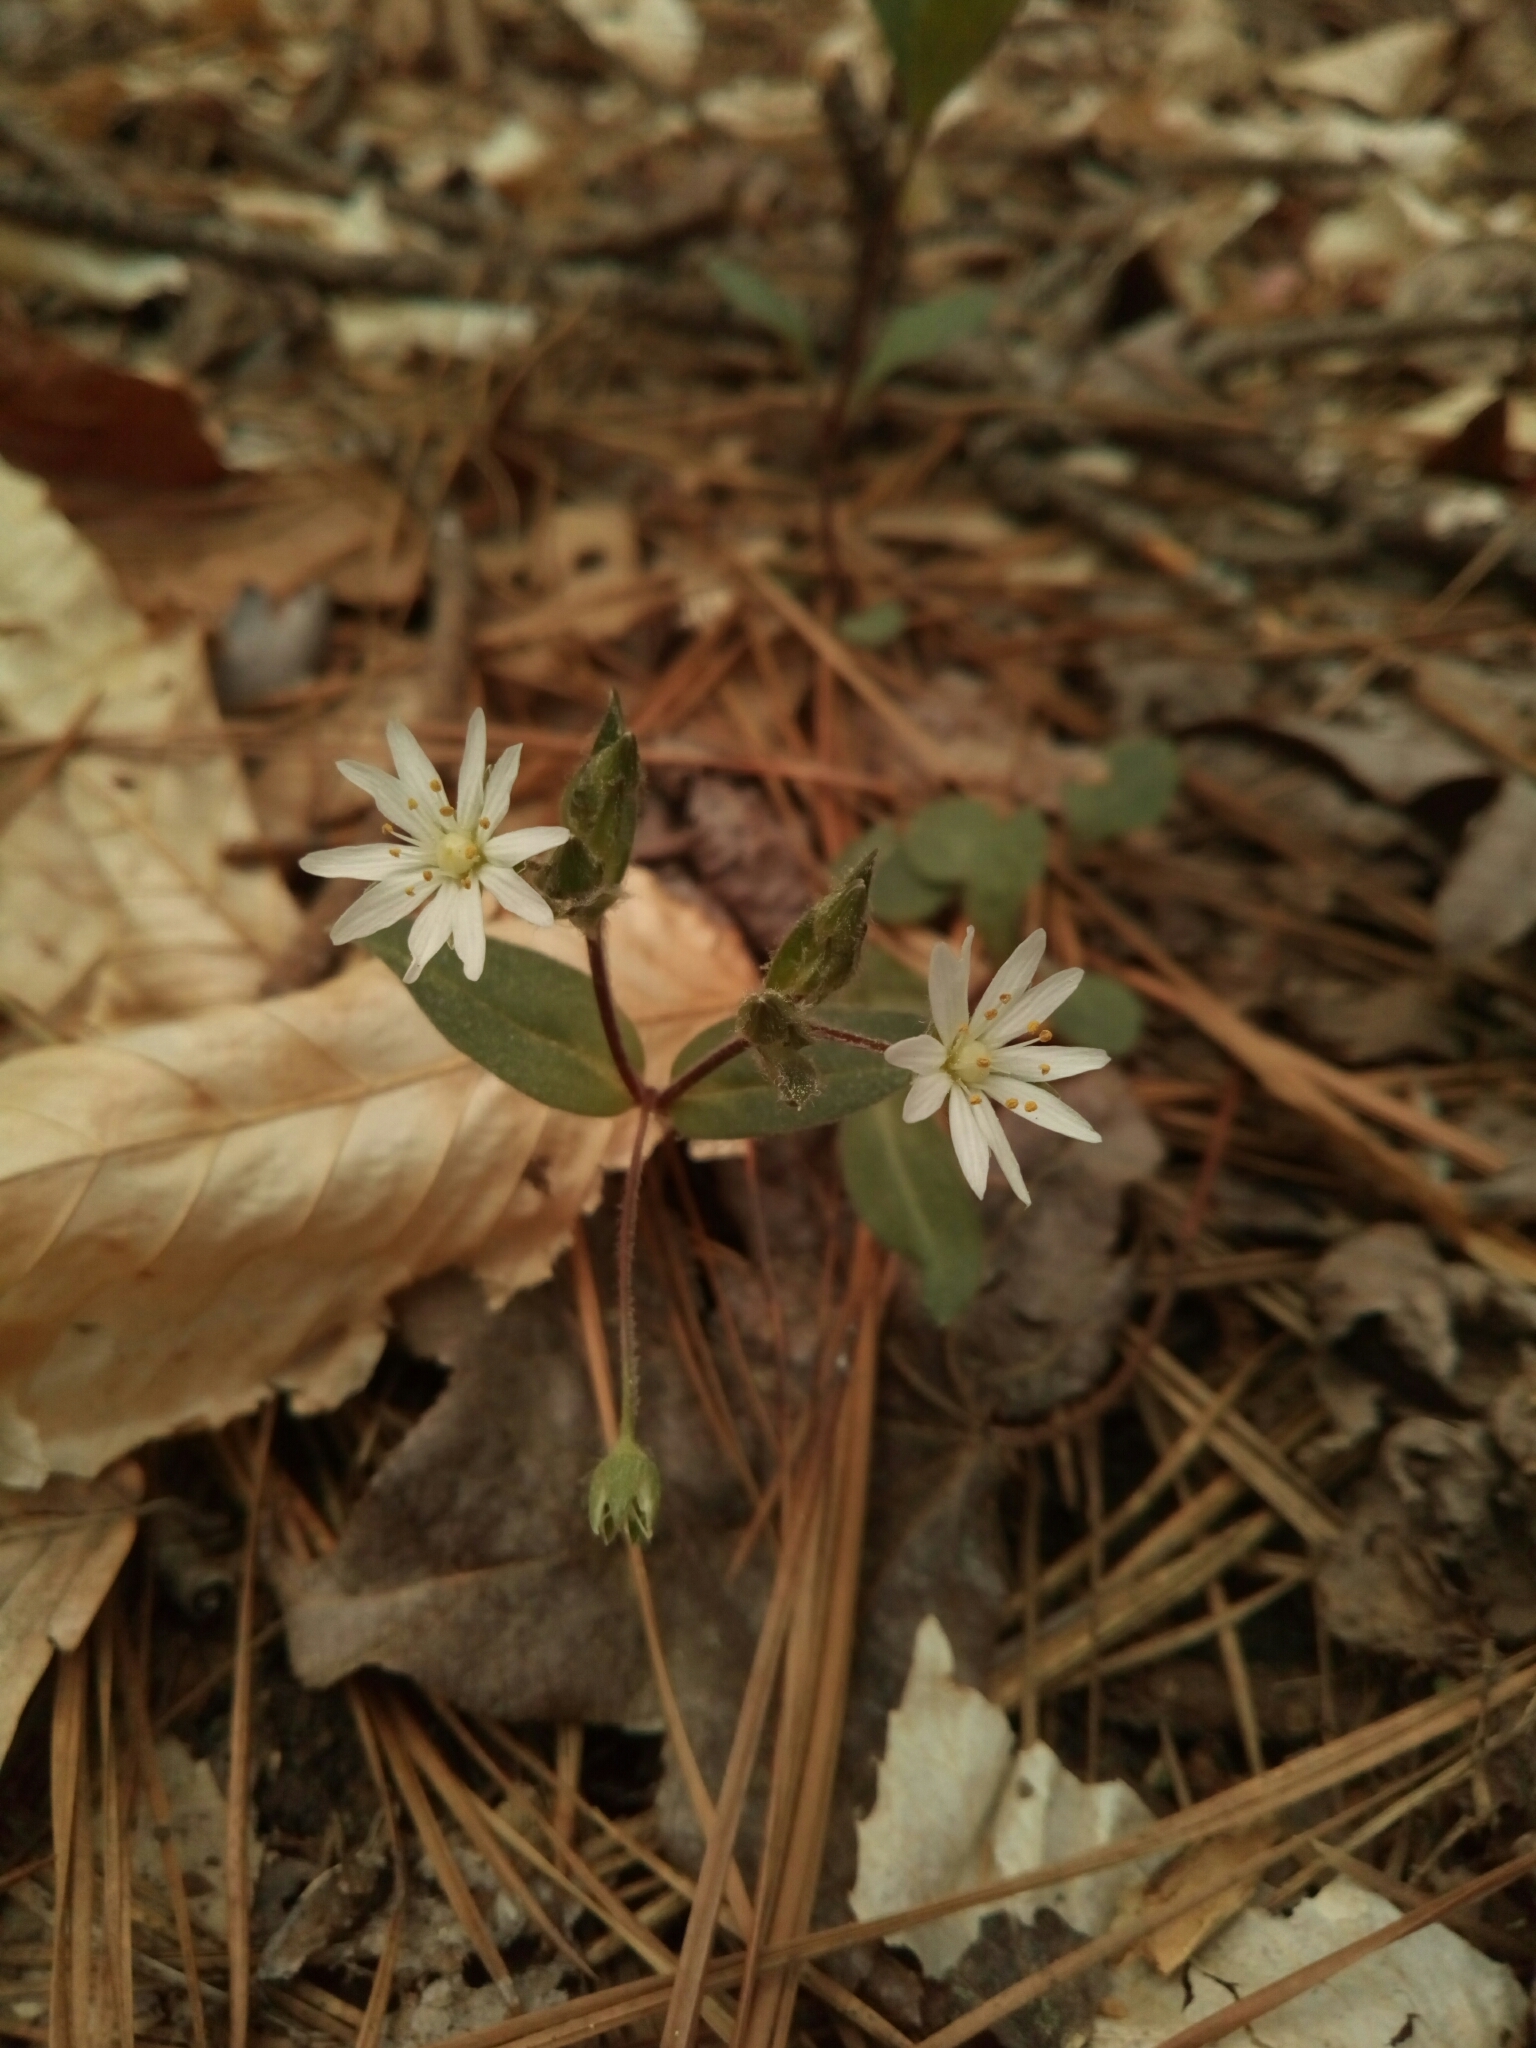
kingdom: Plantae
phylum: Tracheophyta
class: Magnoliopsida
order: Caryophyllales
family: Caryophyllaceae
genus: Stellaria
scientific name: Stellaria pubera
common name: Star chickweed
